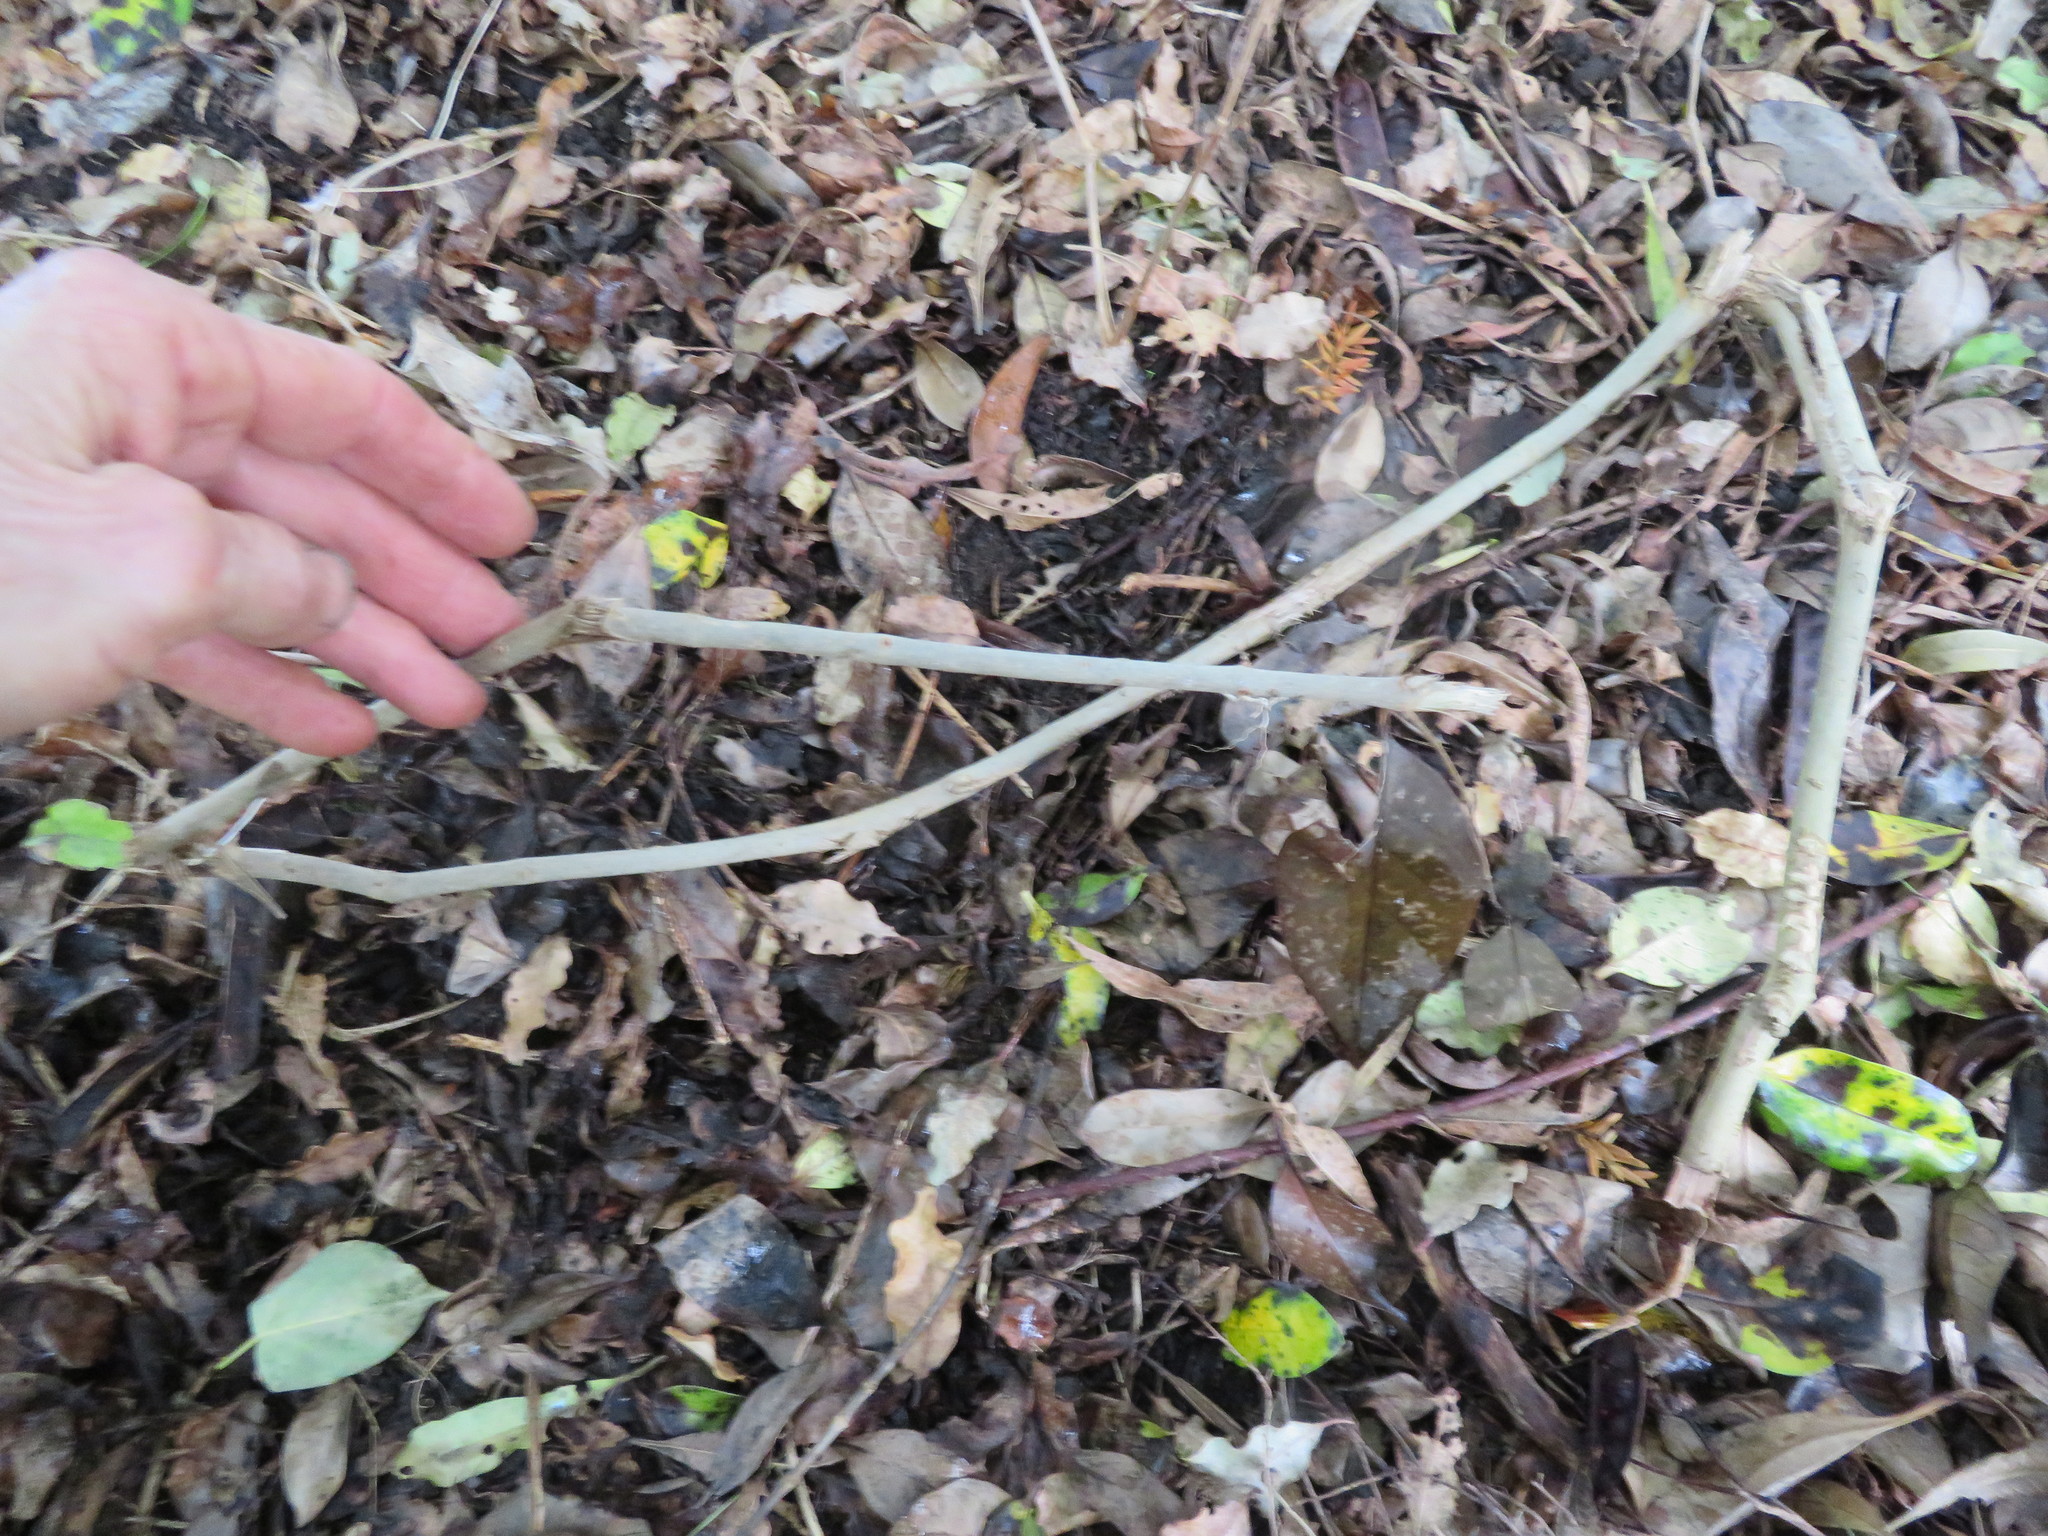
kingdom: Plantae
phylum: Tracheophyta
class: Magnoliopsida
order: Lamiales
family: Oleaceae
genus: Ligustrum
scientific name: Ligustrum lucidum
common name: Glossy privet
